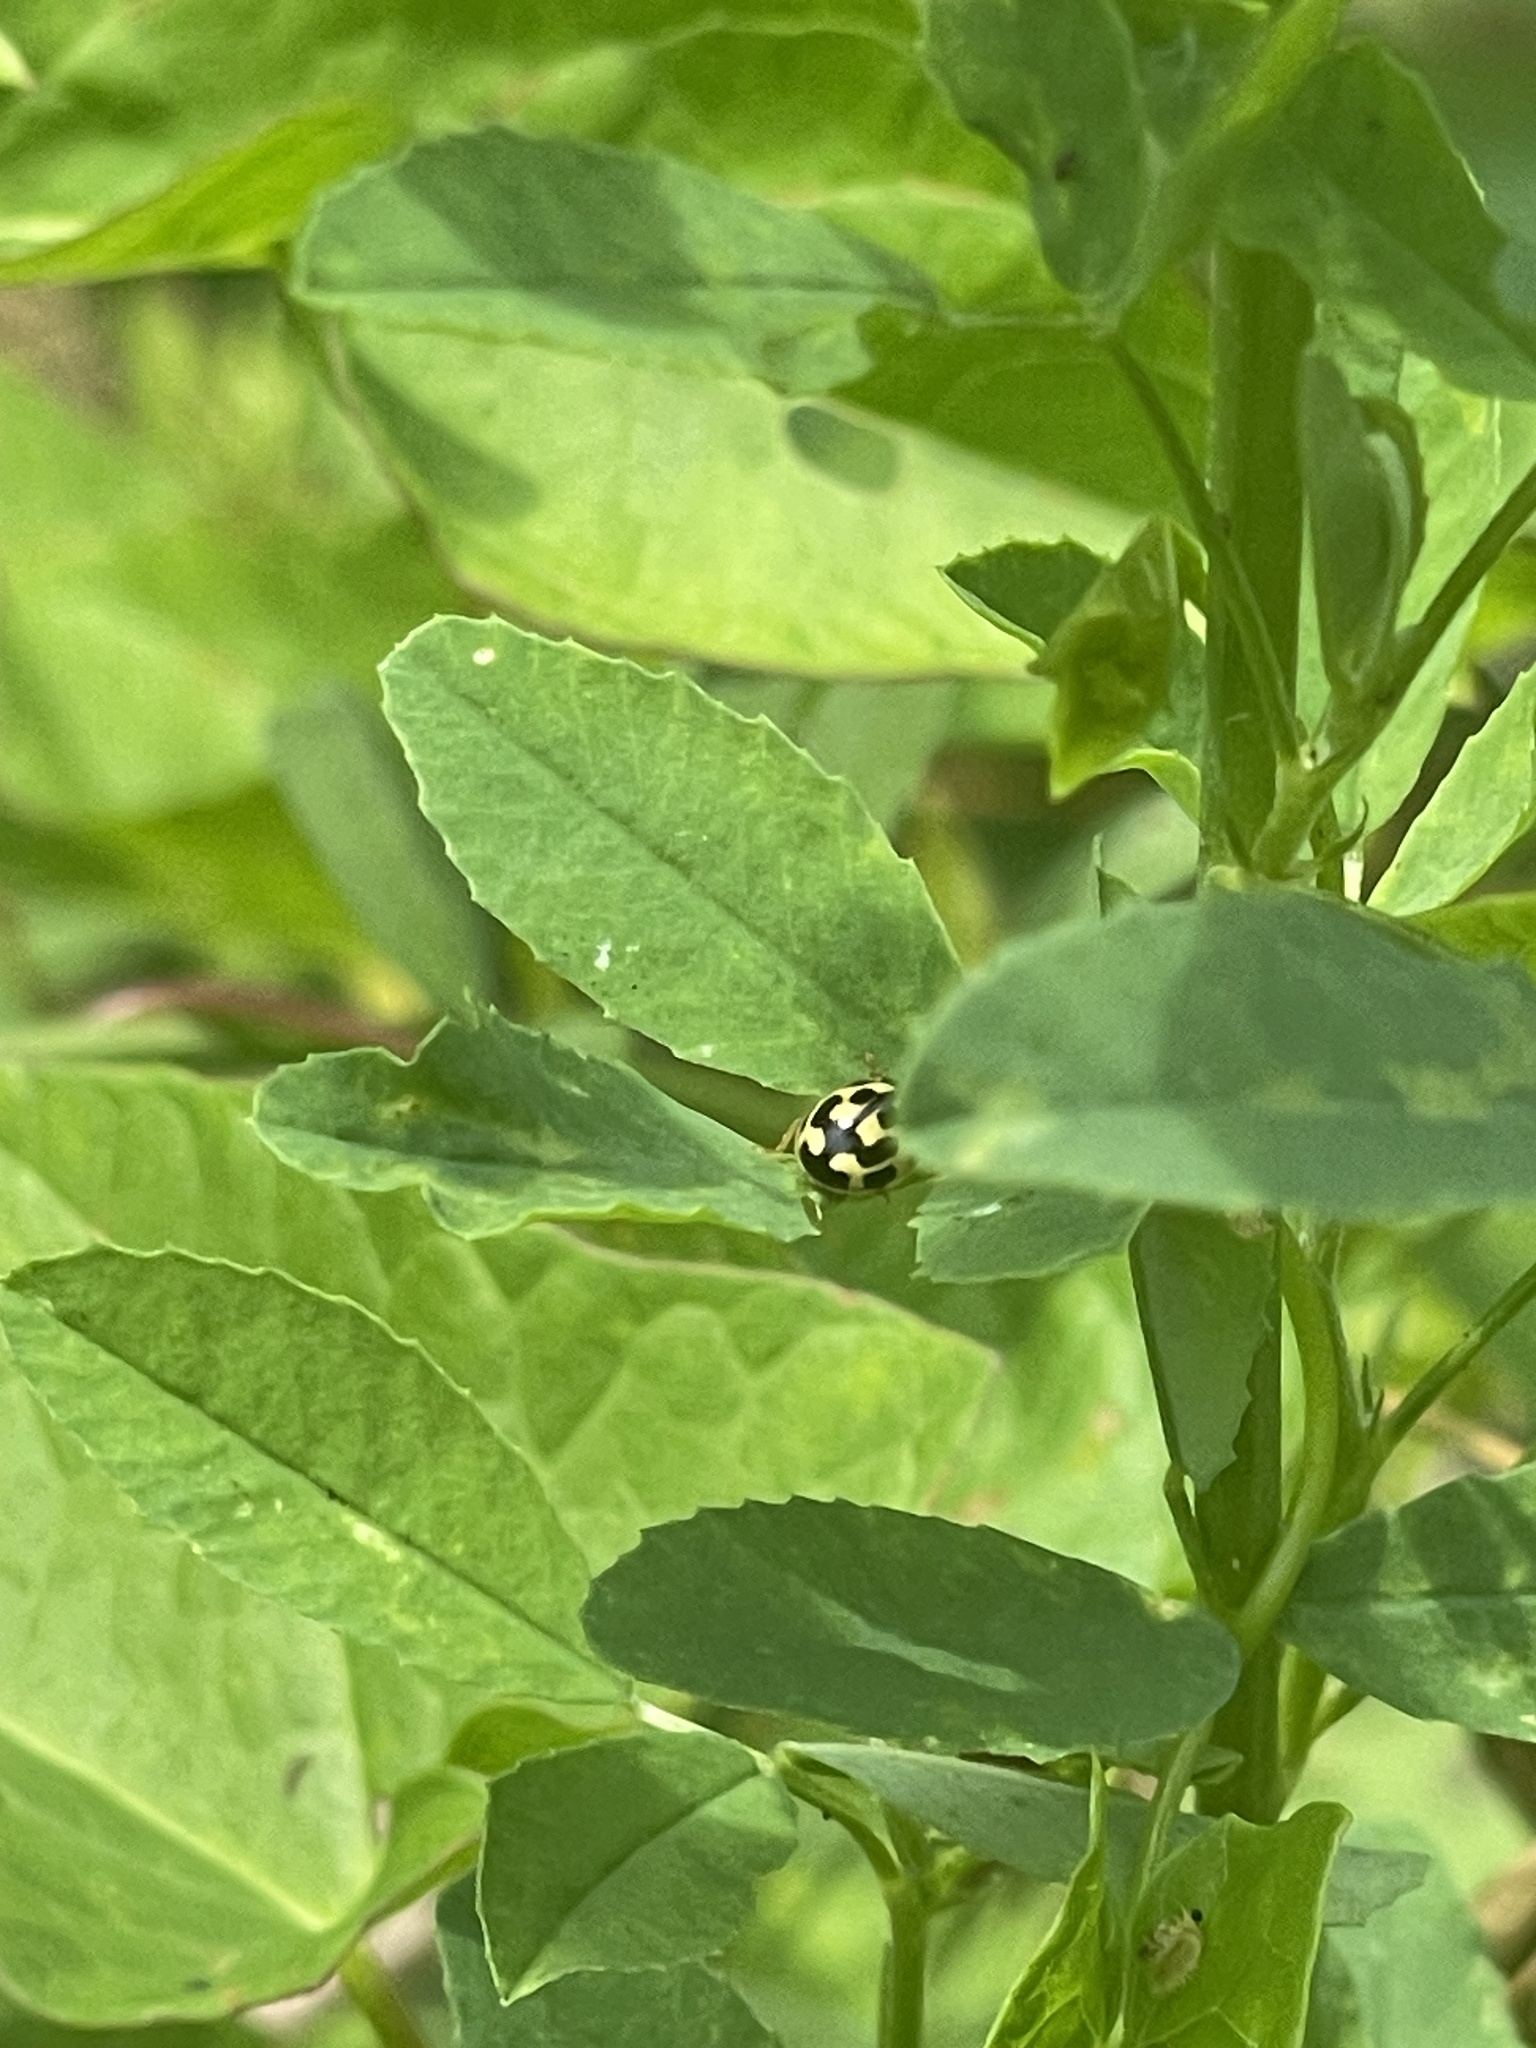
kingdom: Animalia
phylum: Arthropoda
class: Insecta
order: Coleoptera
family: Coccinellidae
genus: Propylaea
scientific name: Propylaea quatuordecimpunctata
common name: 14-spotted ladybird beetle
